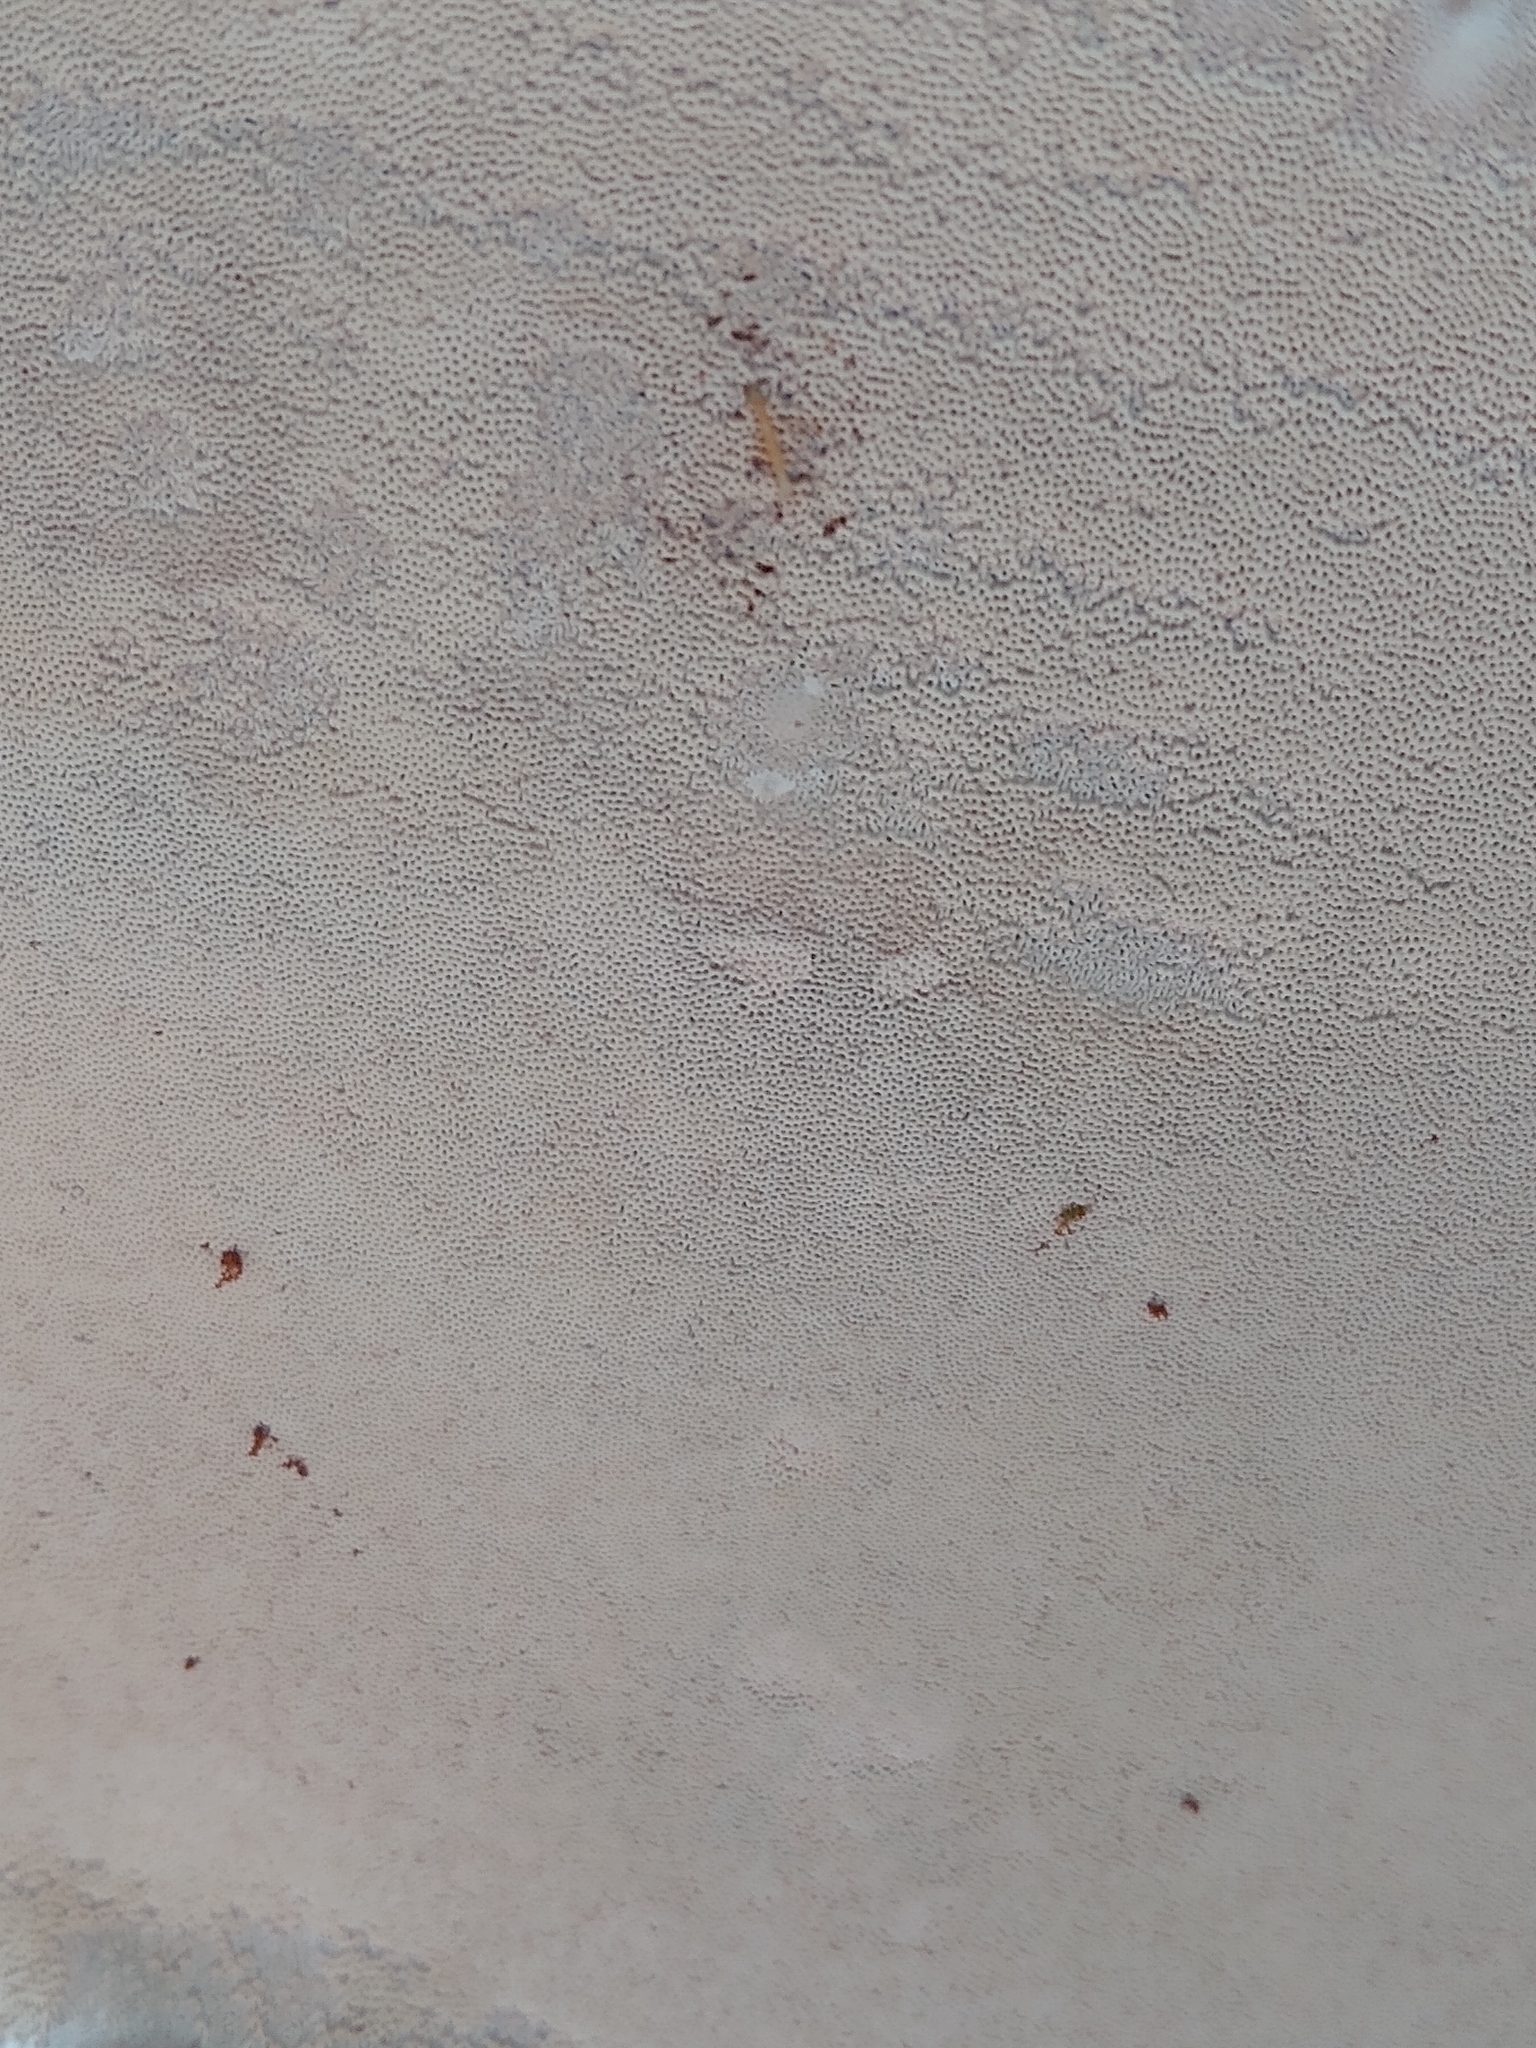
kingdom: Fungi
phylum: Basidiomycota
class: Agaricomycetes
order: Polyporales
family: Polyporaceae
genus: Ganoderma
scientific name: Ganoderma polychromum
